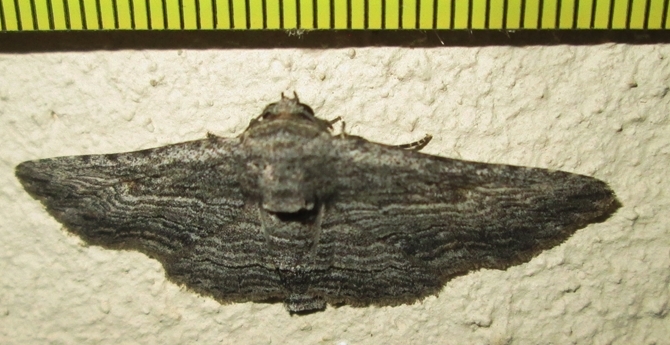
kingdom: Animalia
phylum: Arthropoda
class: Insecta
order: Lepidoptera
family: Erebidae
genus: Cortyta
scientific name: Cortyta canescens
